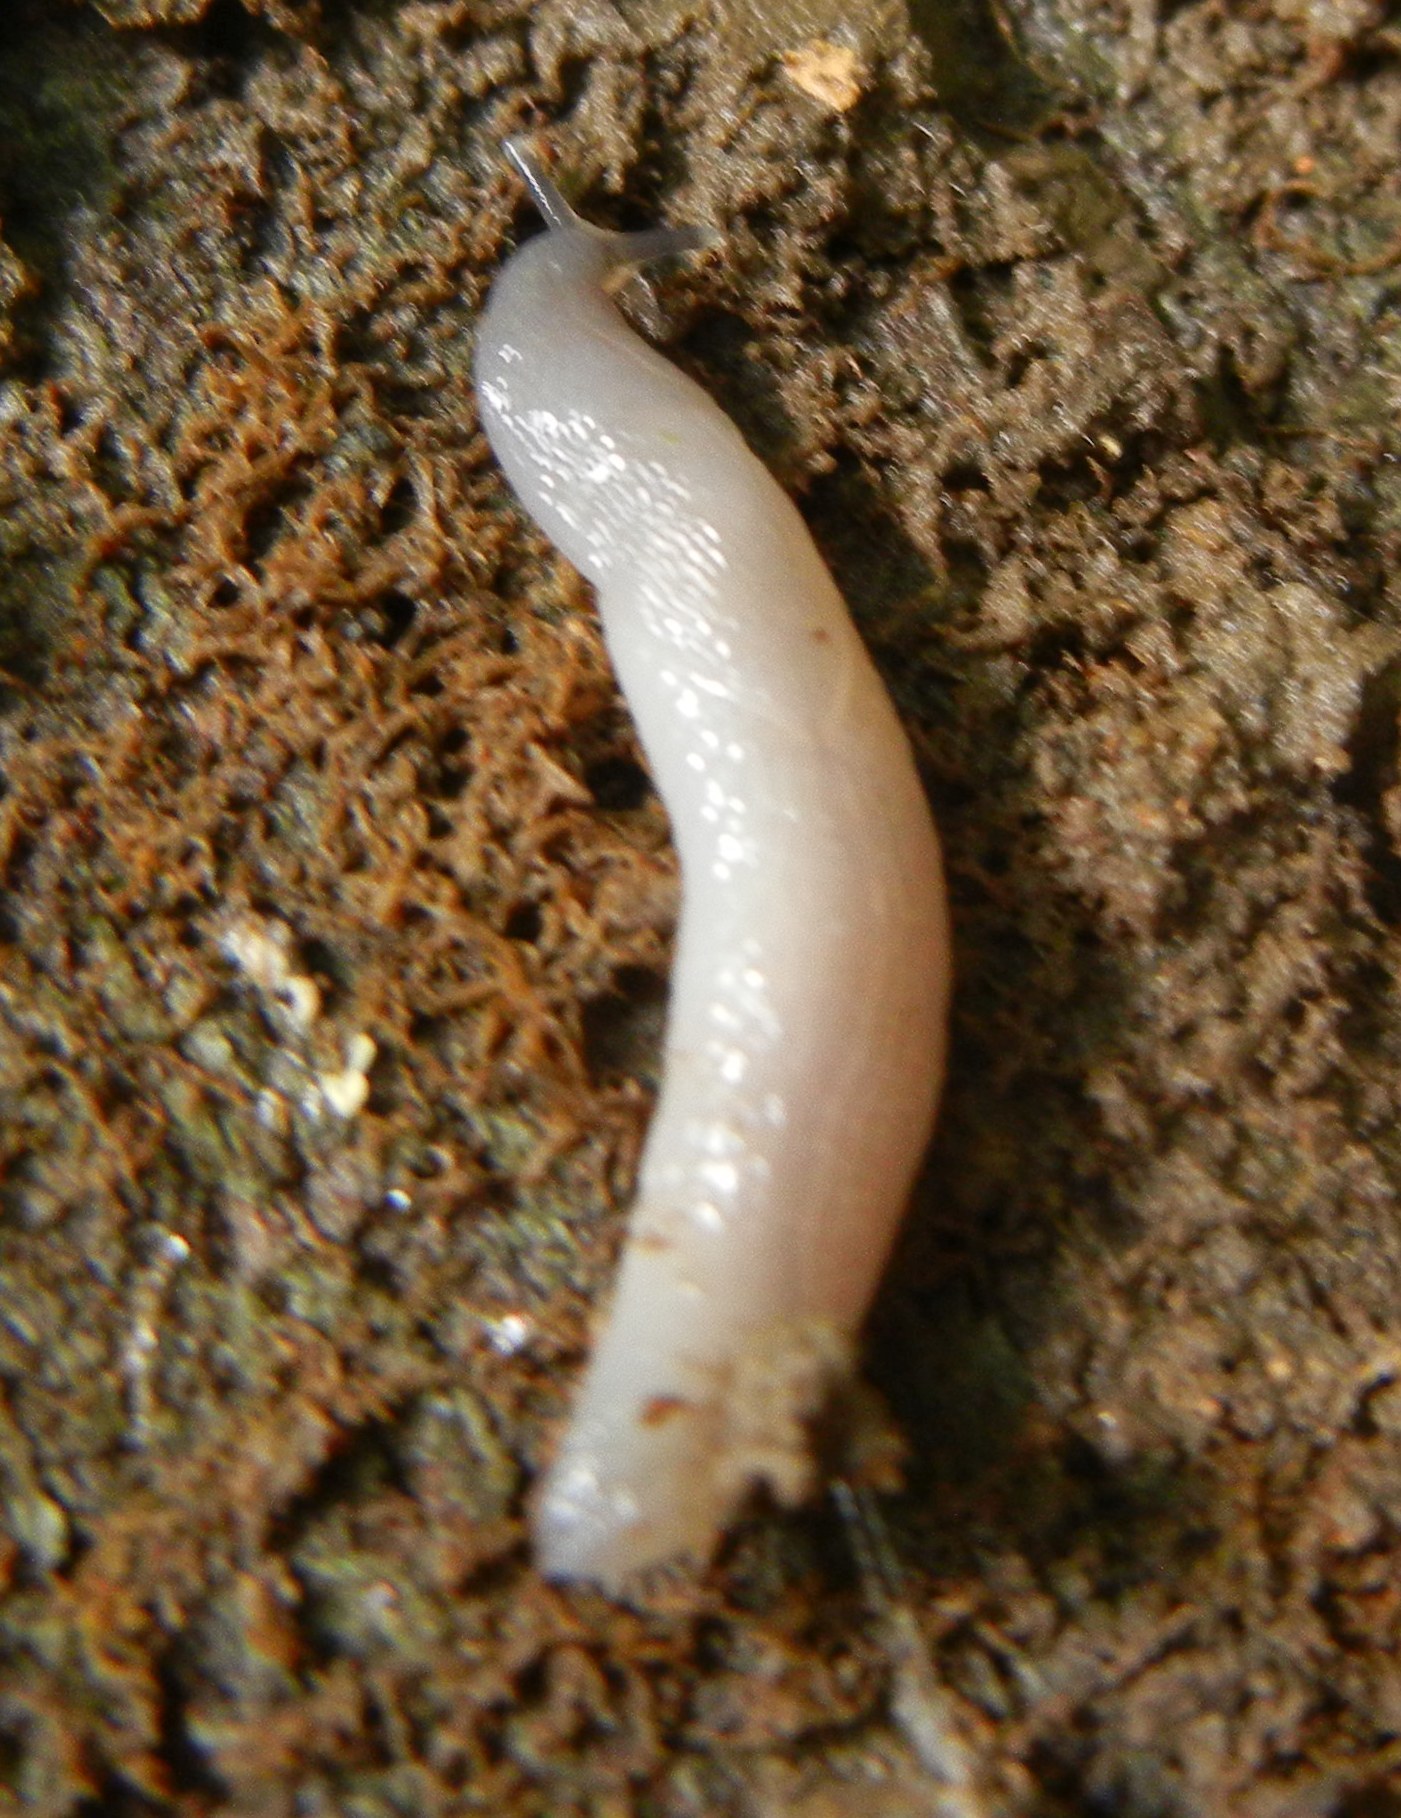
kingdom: Animalia
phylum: Mollusca
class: Gastropoda
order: Stylommatophora
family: Boettgerillidae
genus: Boettgerilla
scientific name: Boettgerilla pallens
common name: Worm slug
